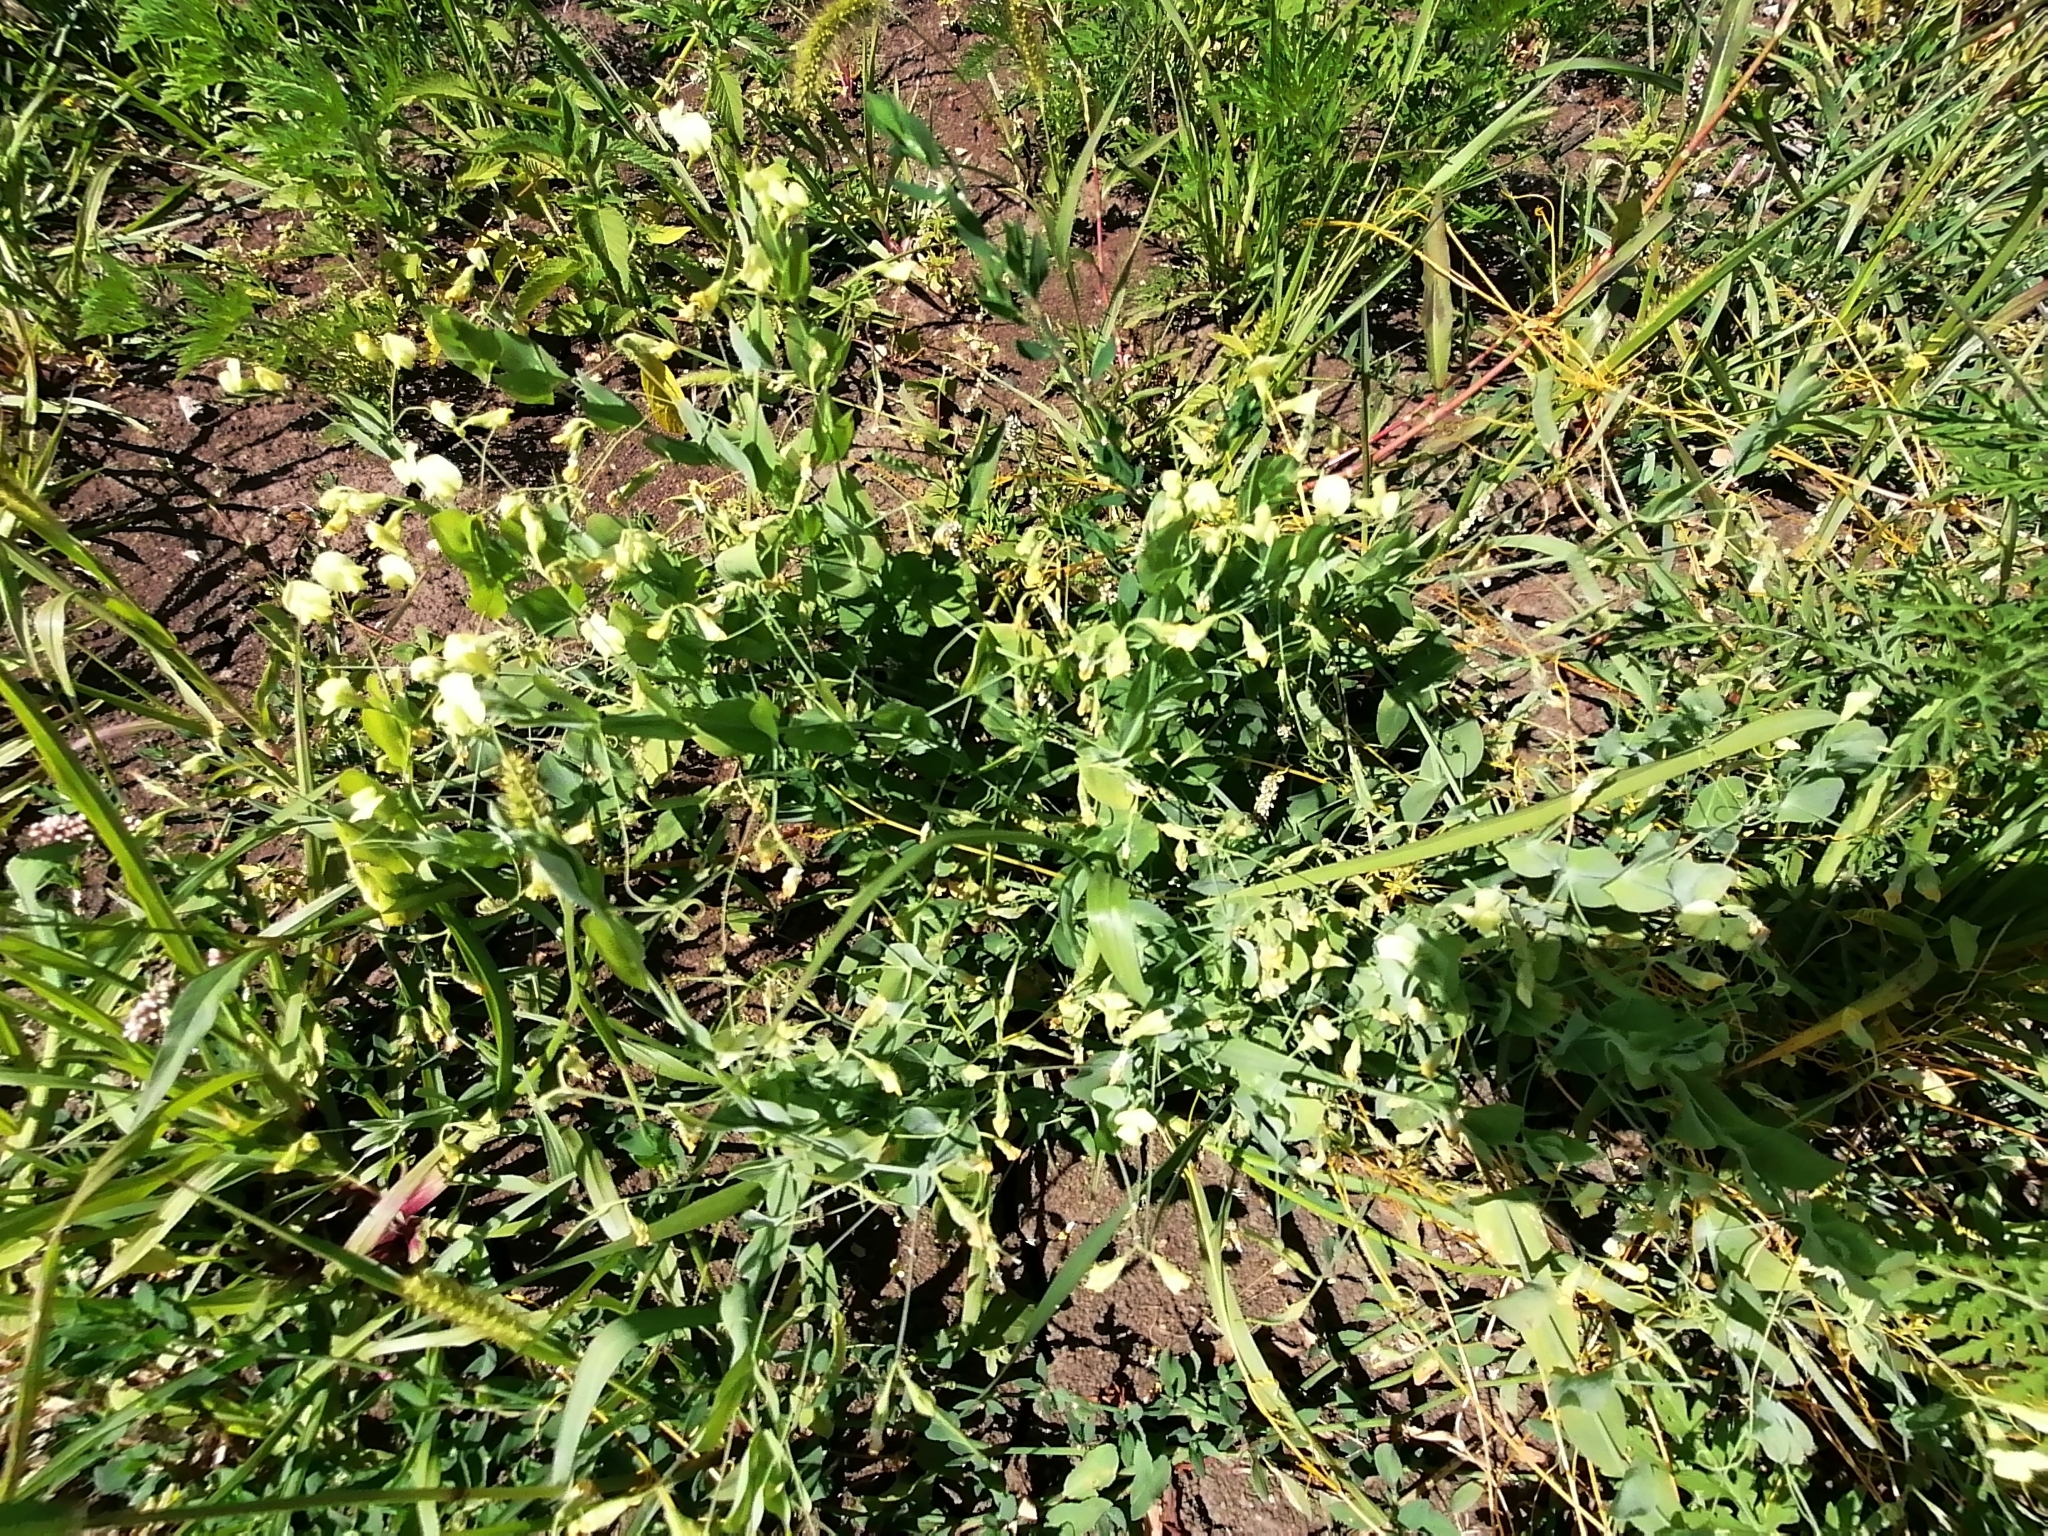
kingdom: Plantae
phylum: Tracheophyta
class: Magnoliopsida
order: Fabales
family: Fabaceae
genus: Lathyrus
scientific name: Lathyrus aphaca
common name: Yellow vetchling
